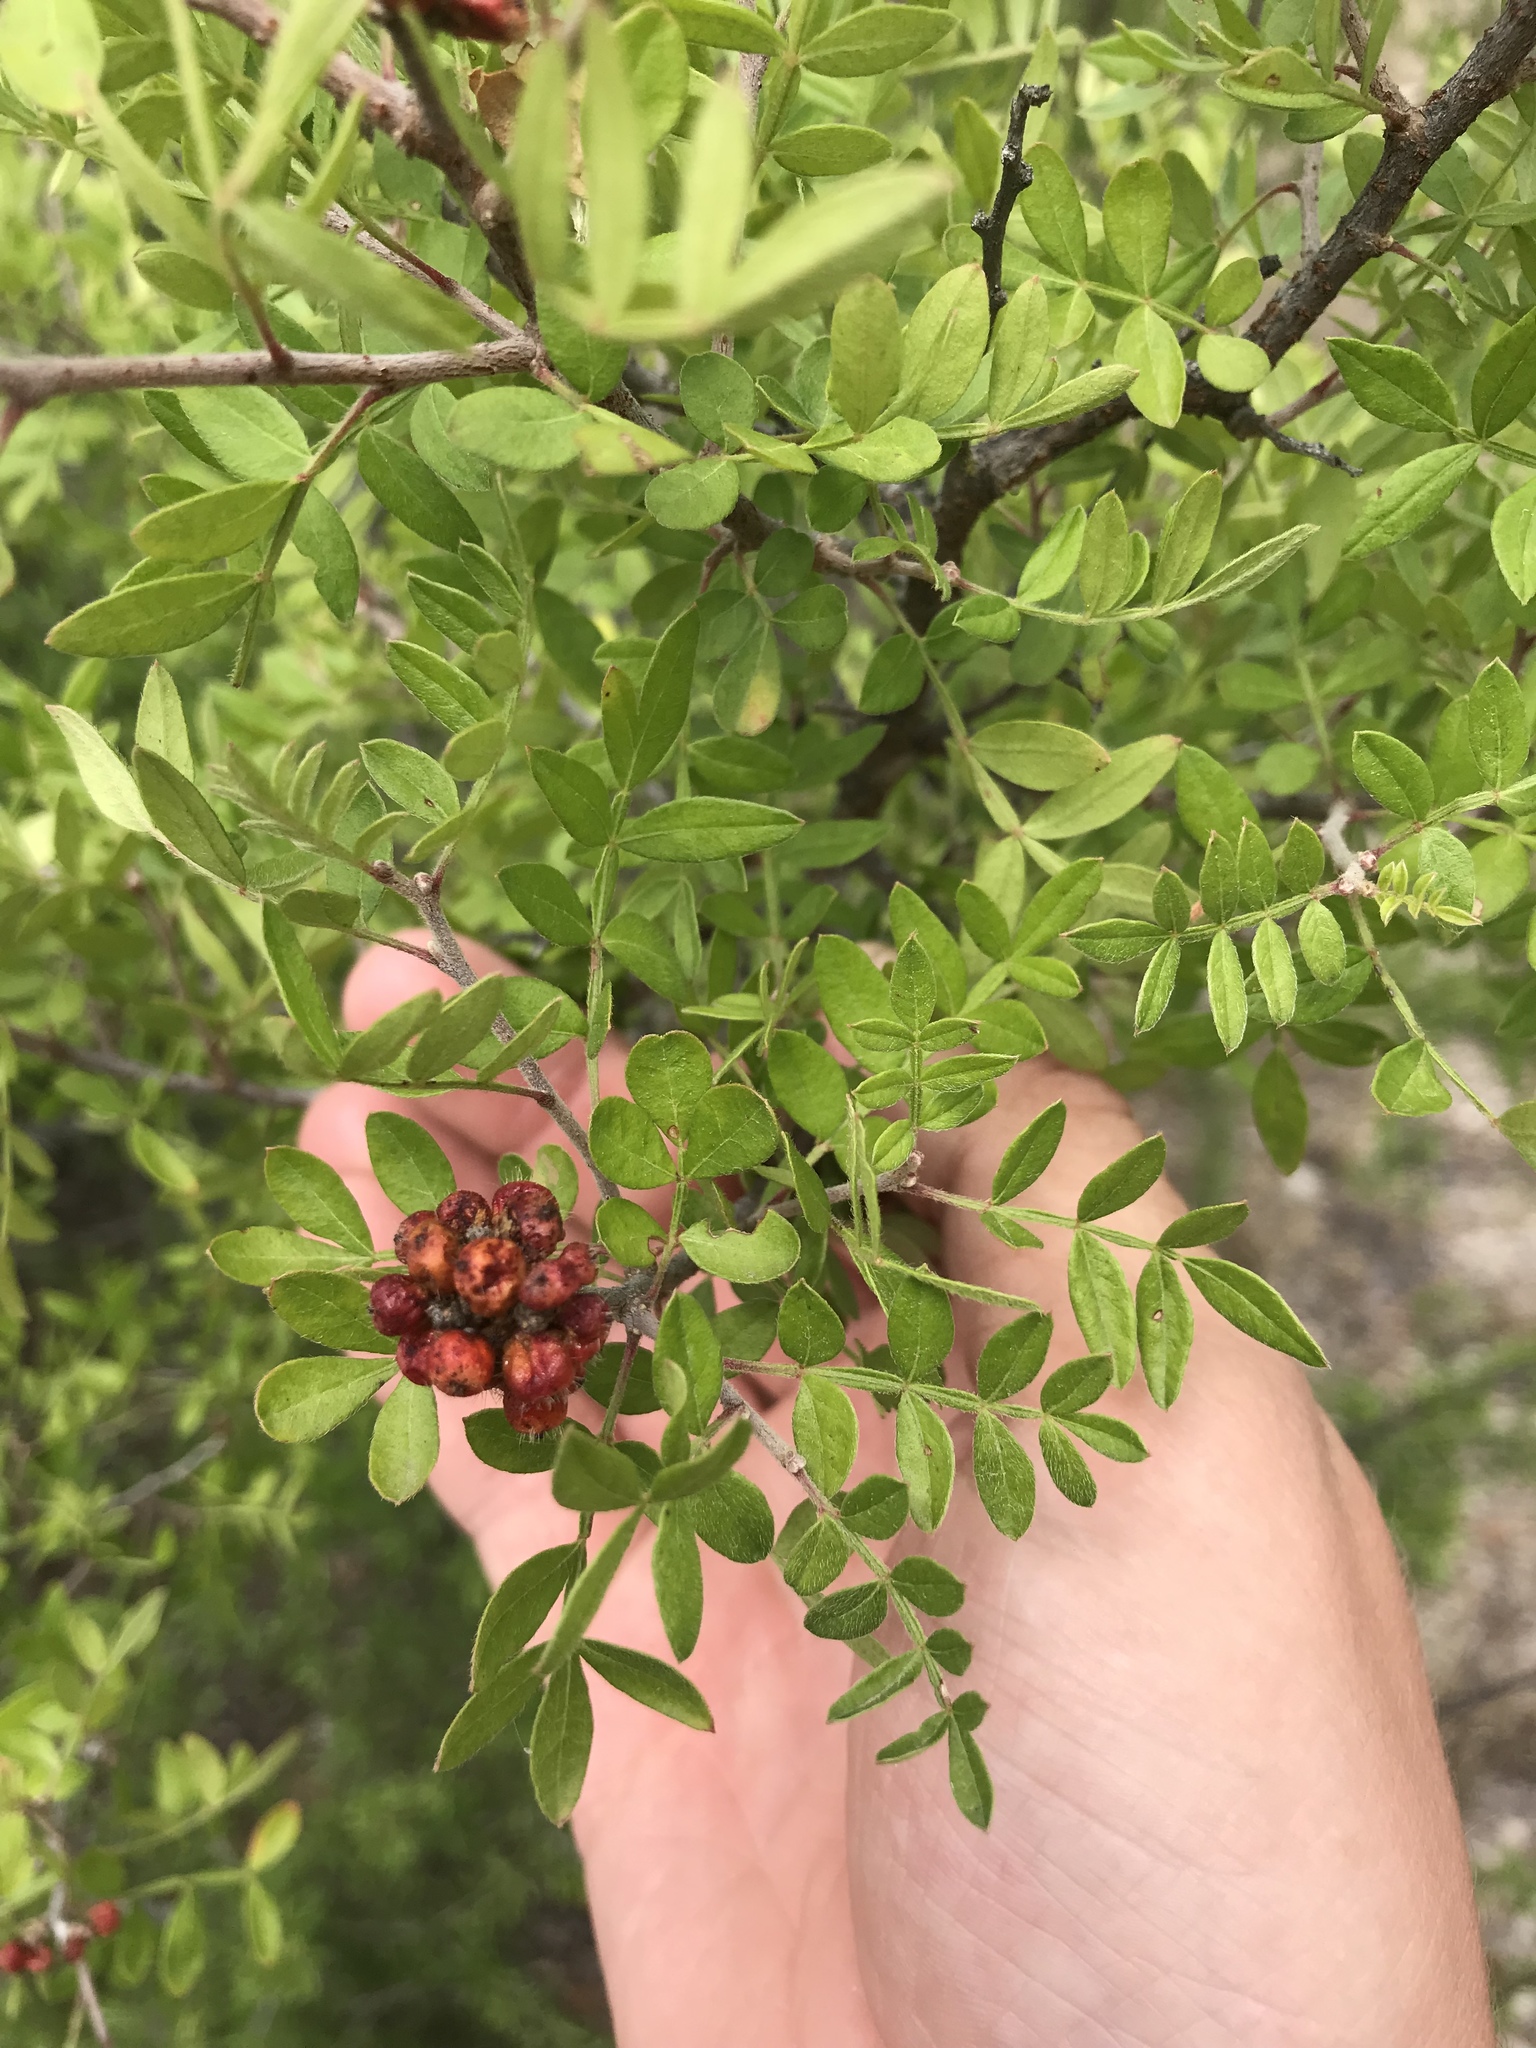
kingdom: Plantae
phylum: Tracheophyta
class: Magnoliopsida
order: Sapindales
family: Anacardiaceae
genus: Rhus
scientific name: Rhus microphylla
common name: Desert sumac
